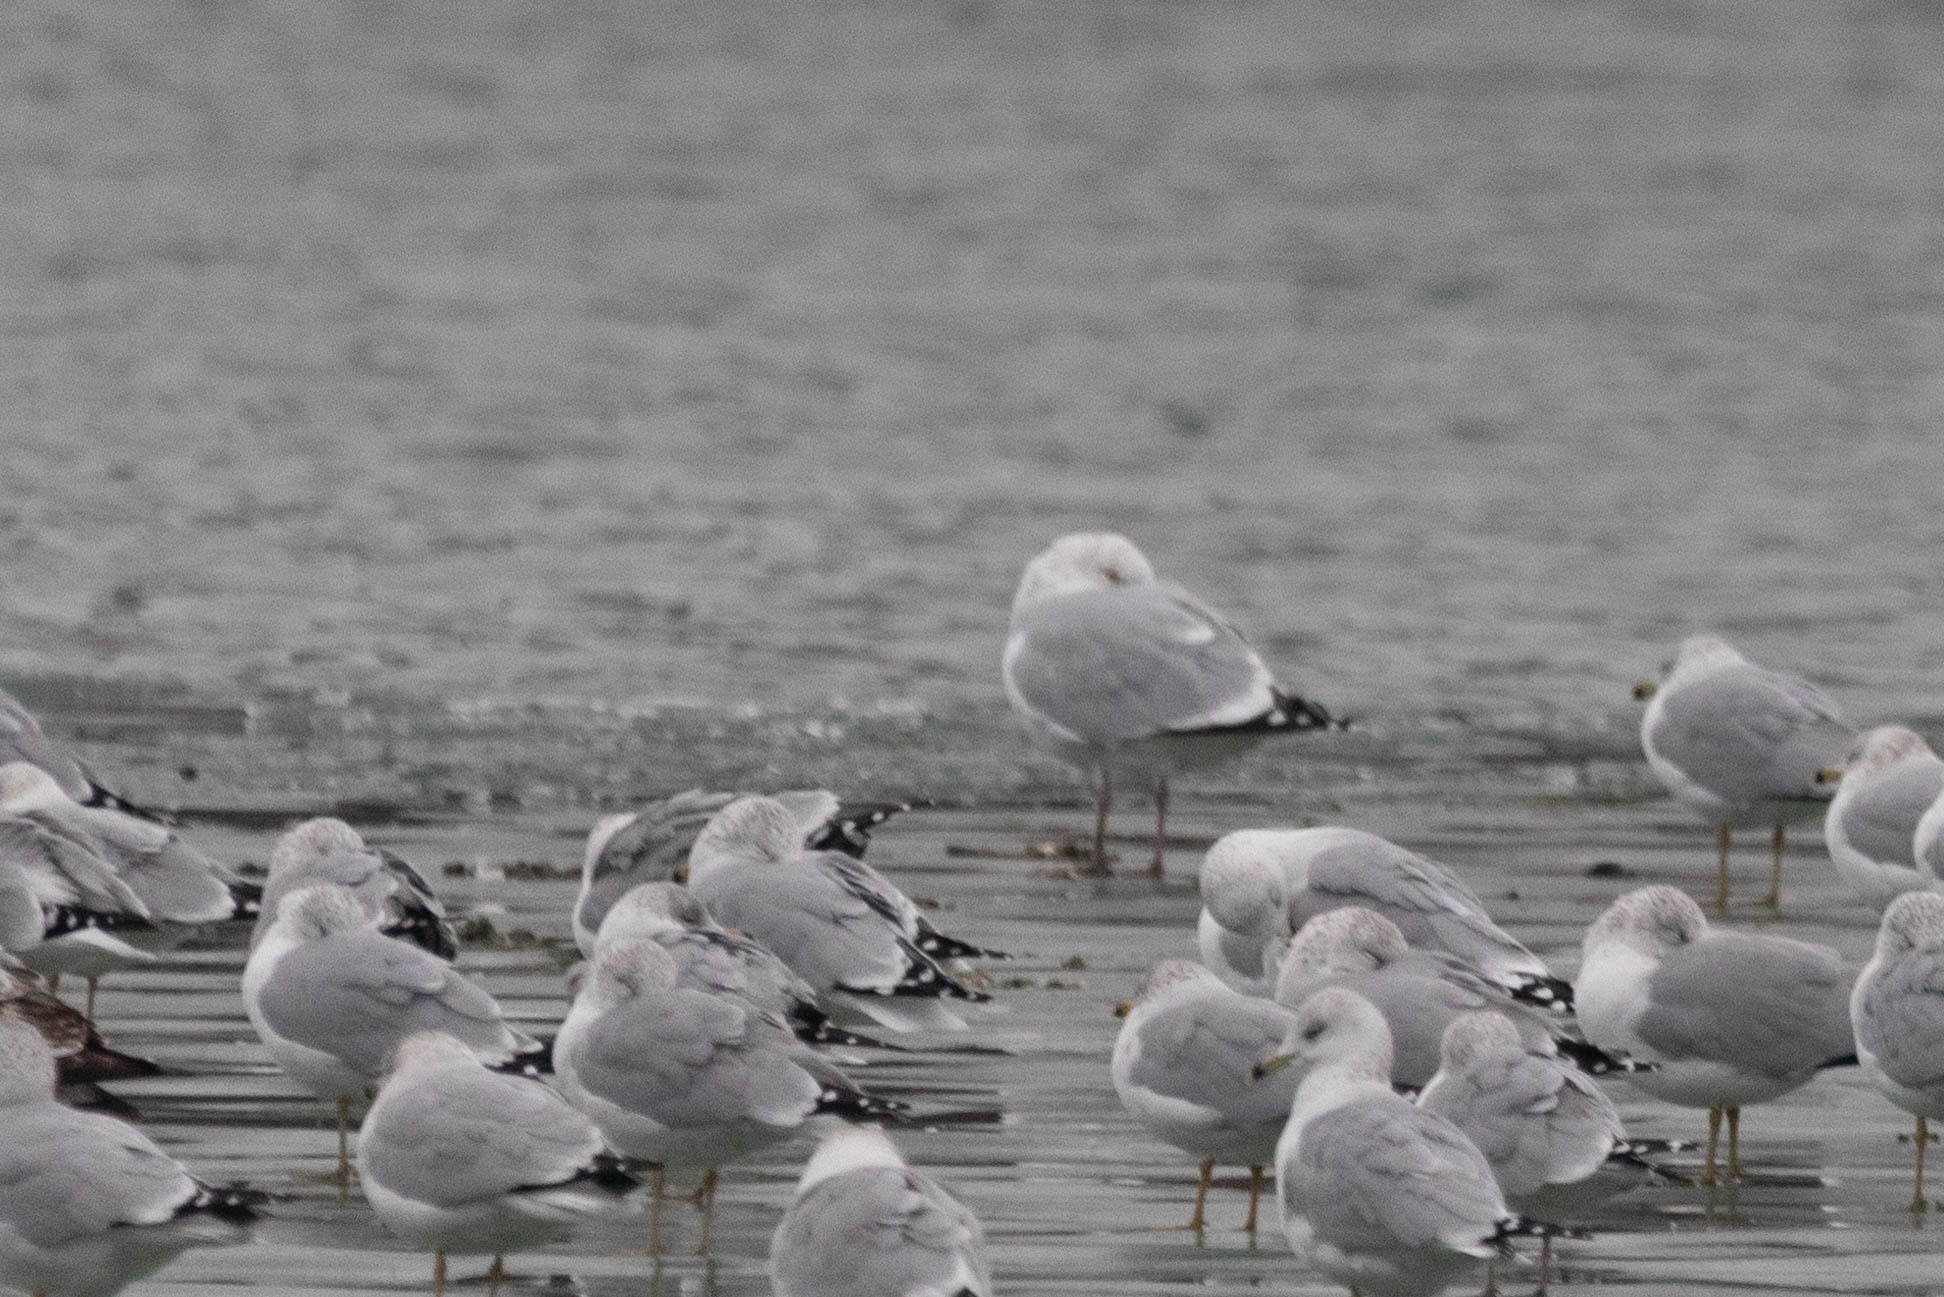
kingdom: Animalia
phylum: Chordata
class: Aves
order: Charadriiformes
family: Laridae
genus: Larus
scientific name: Larus argentatus
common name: Herring gull
